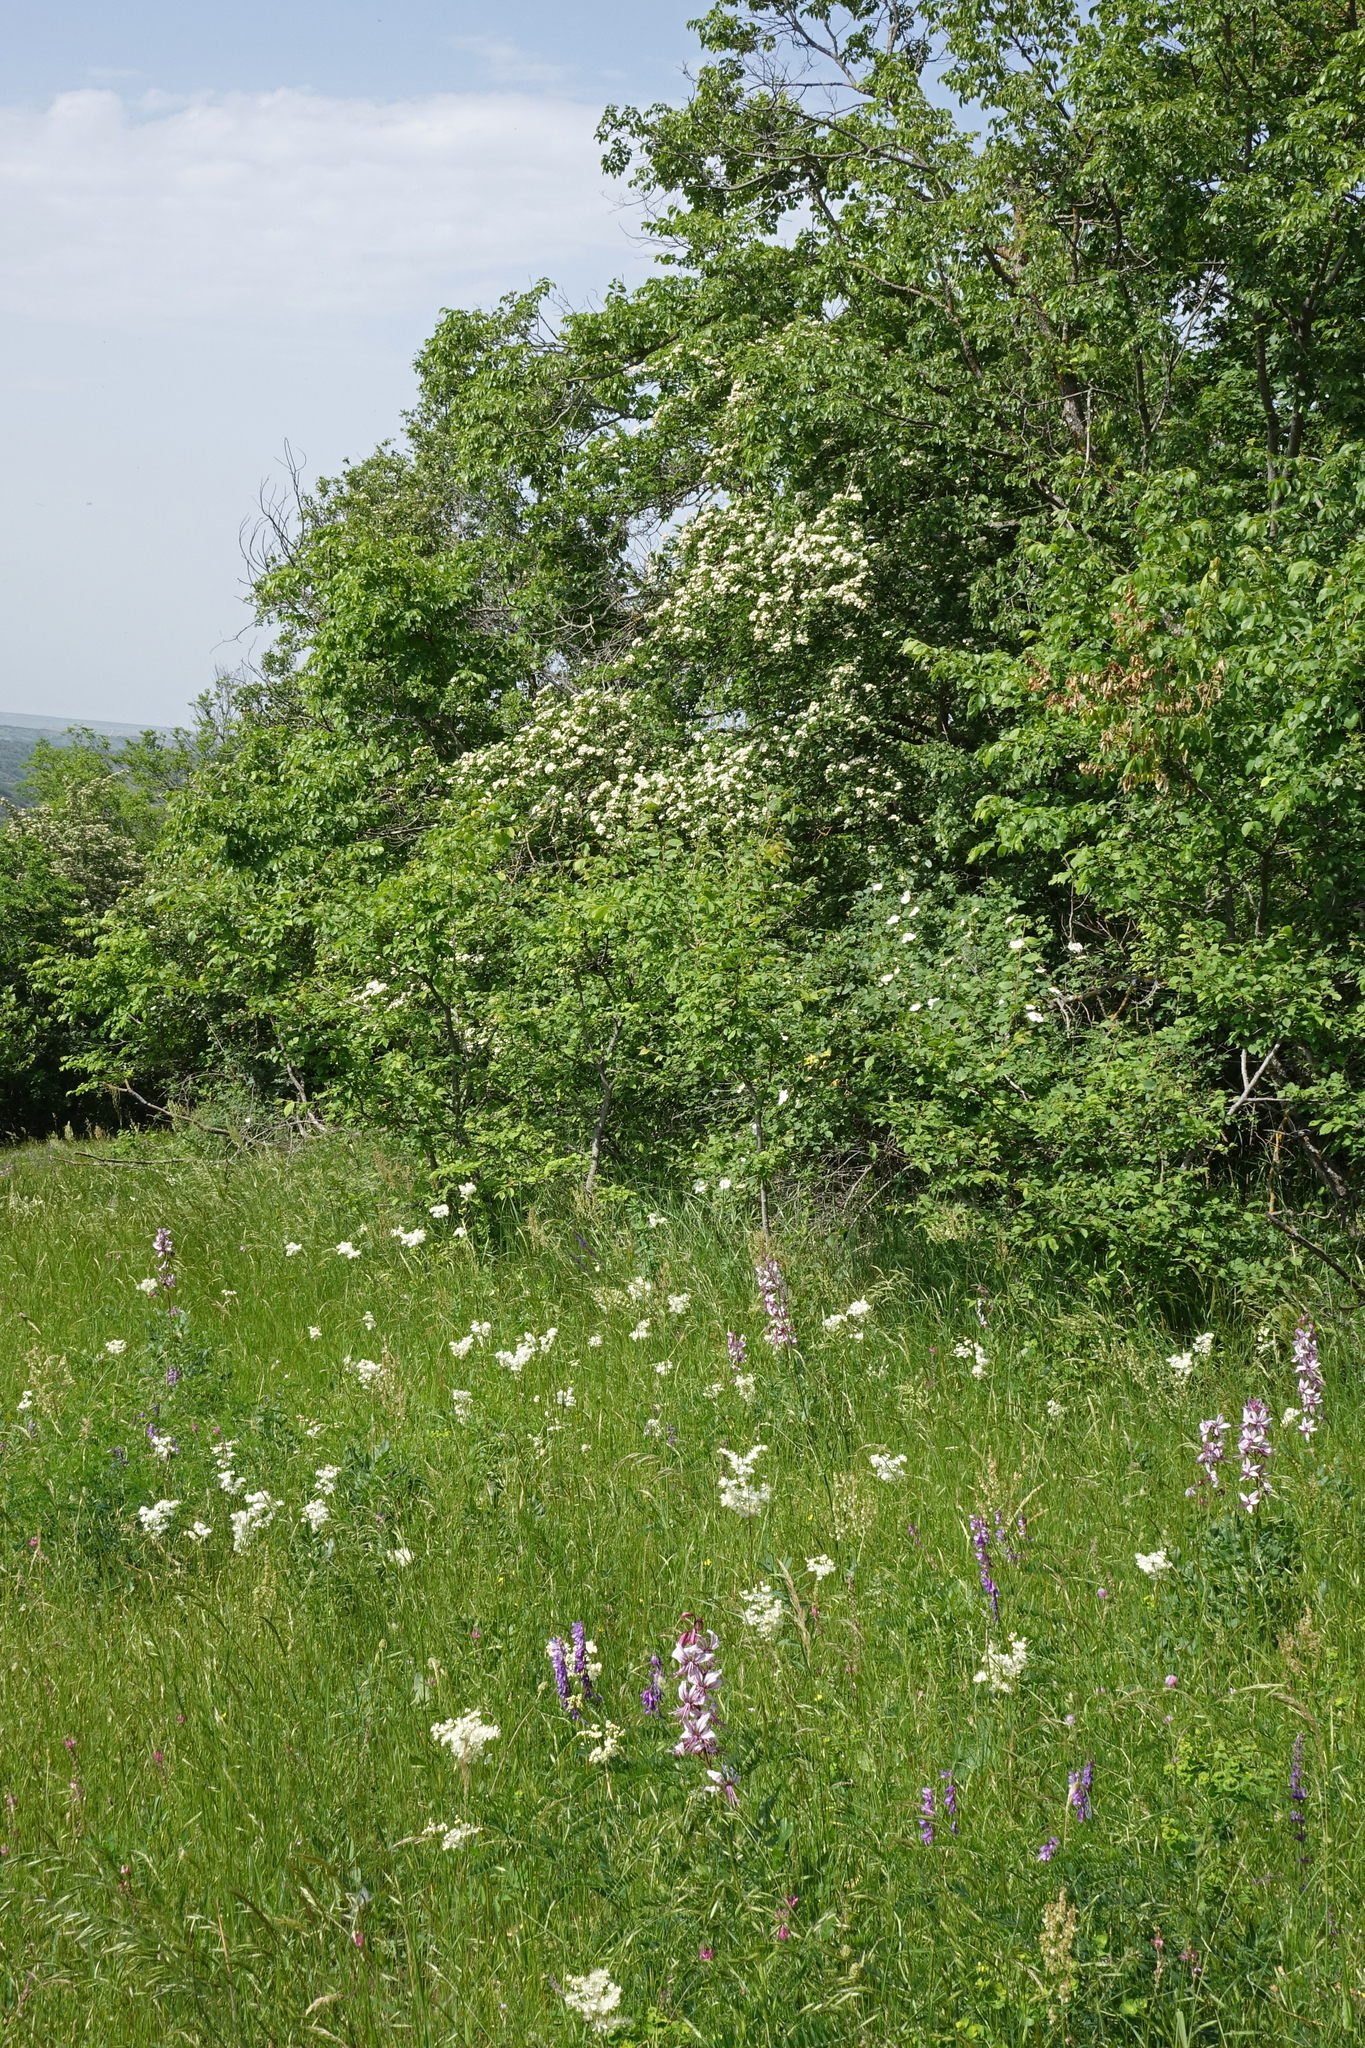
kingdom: Plantae
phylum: Tracheophyta
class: Magnoliopsida
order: Rosales
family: Rosaceae
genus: Filipendula
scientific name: Filipendula vulgaris
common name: Dropwort
